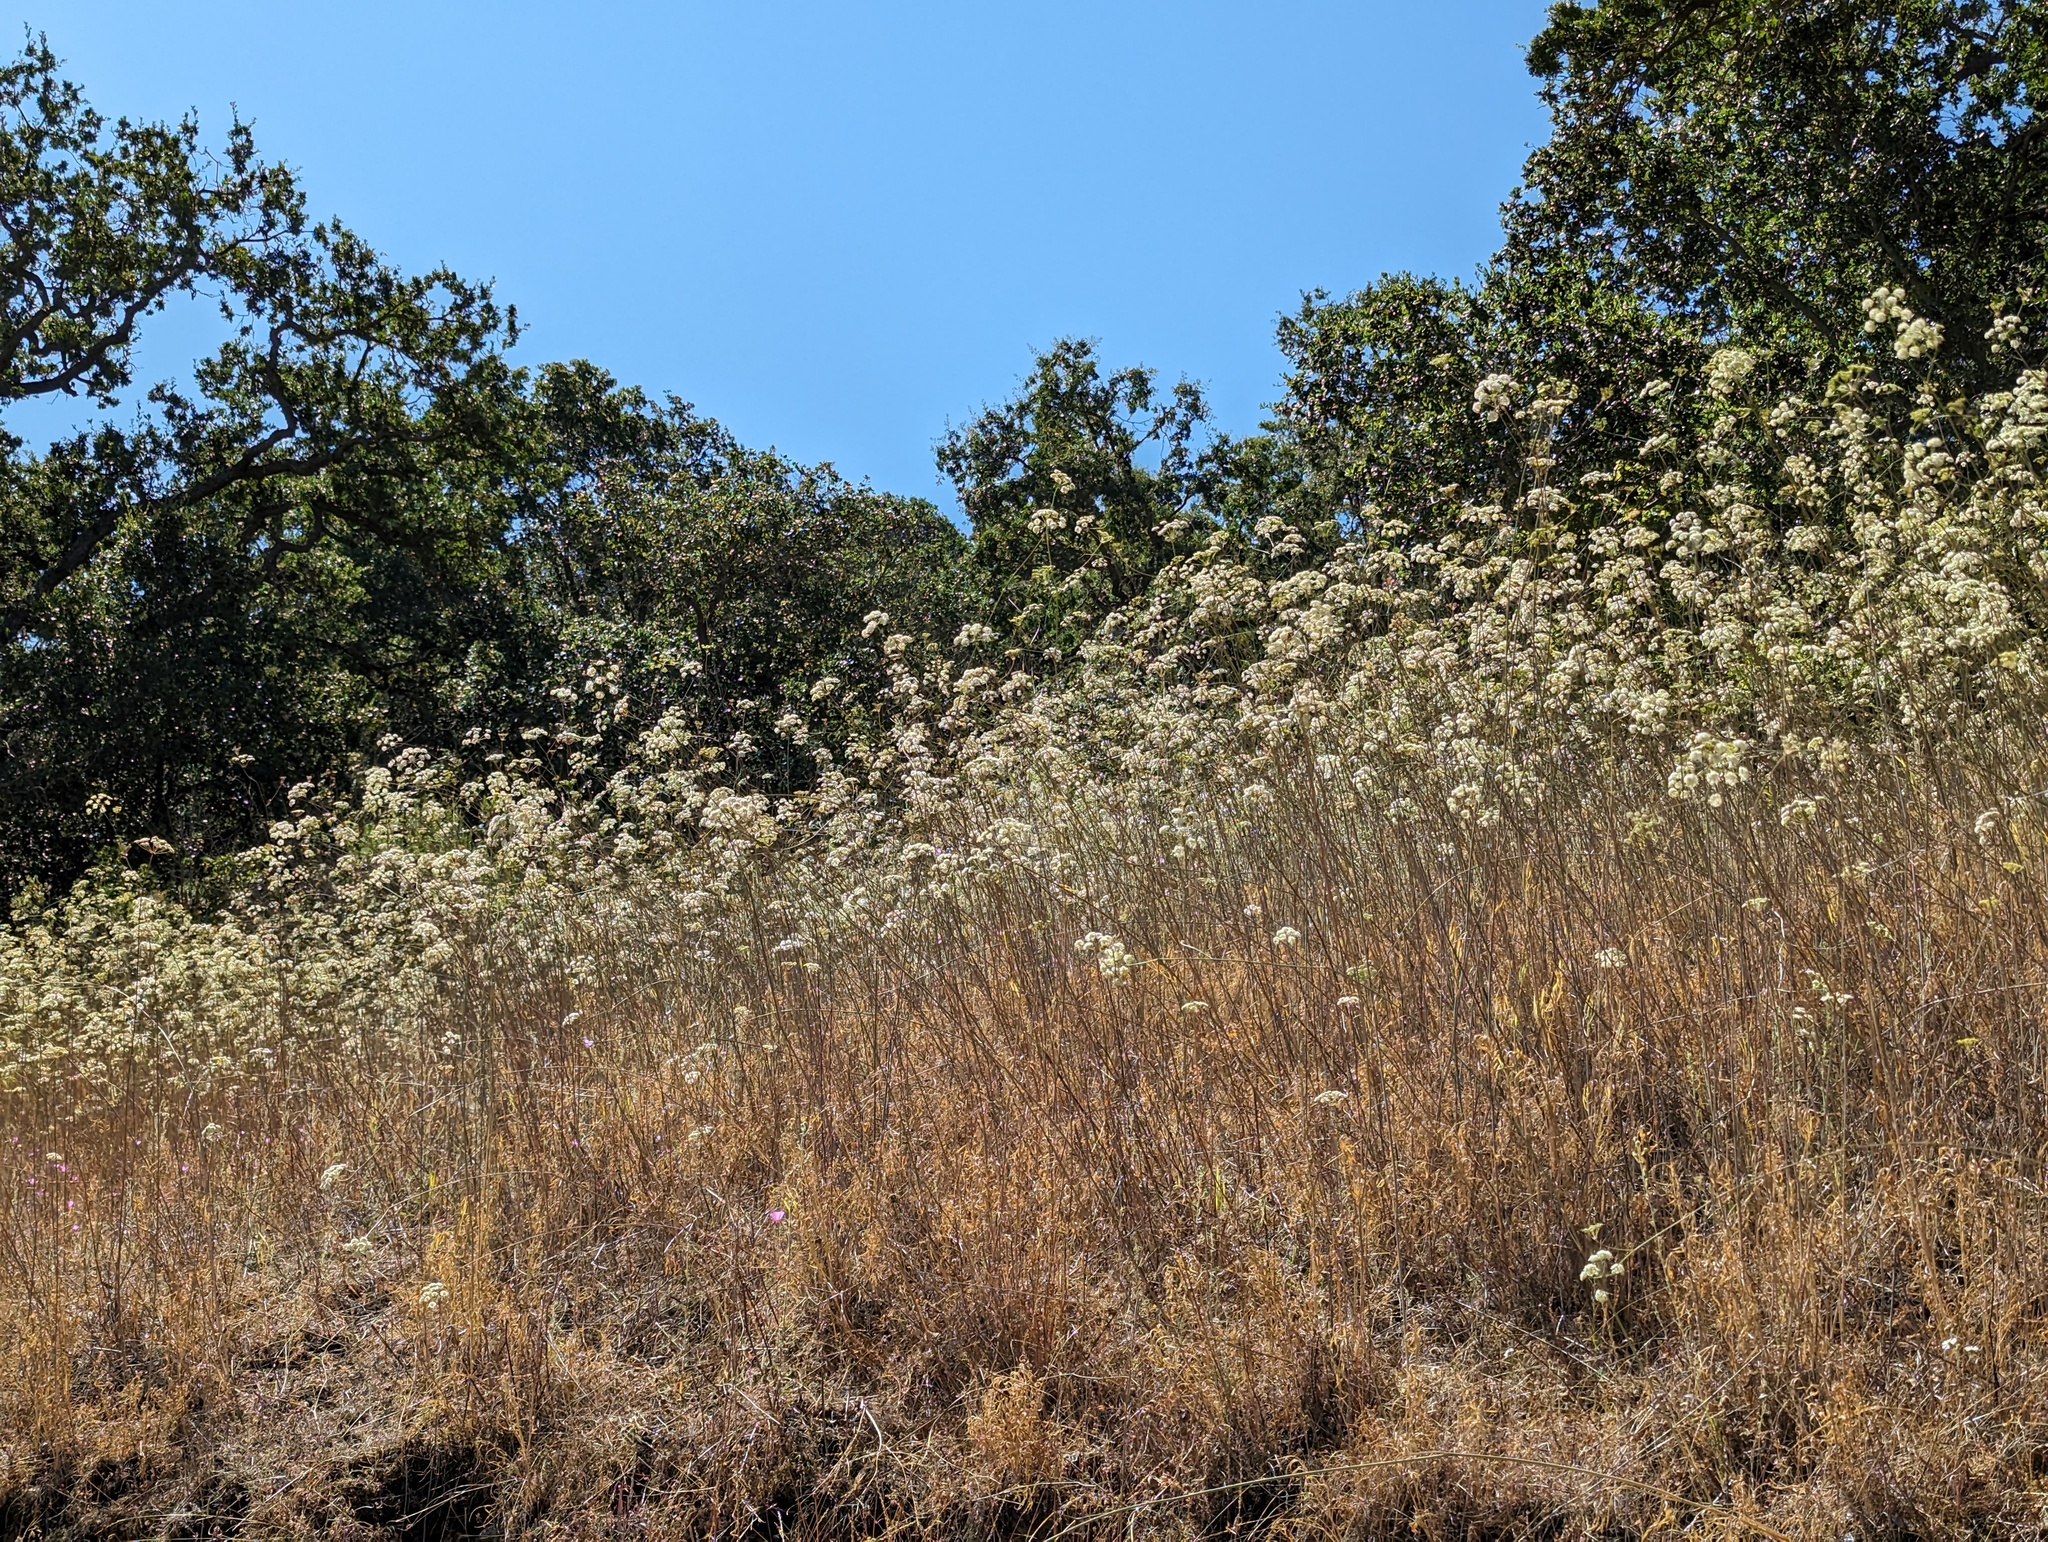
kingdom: Plantae
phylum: Tracheophyta
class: Magnoliopsida
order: Apiales
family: Apiaceae
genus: Perideridia
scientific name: Perideridia kelloggii
